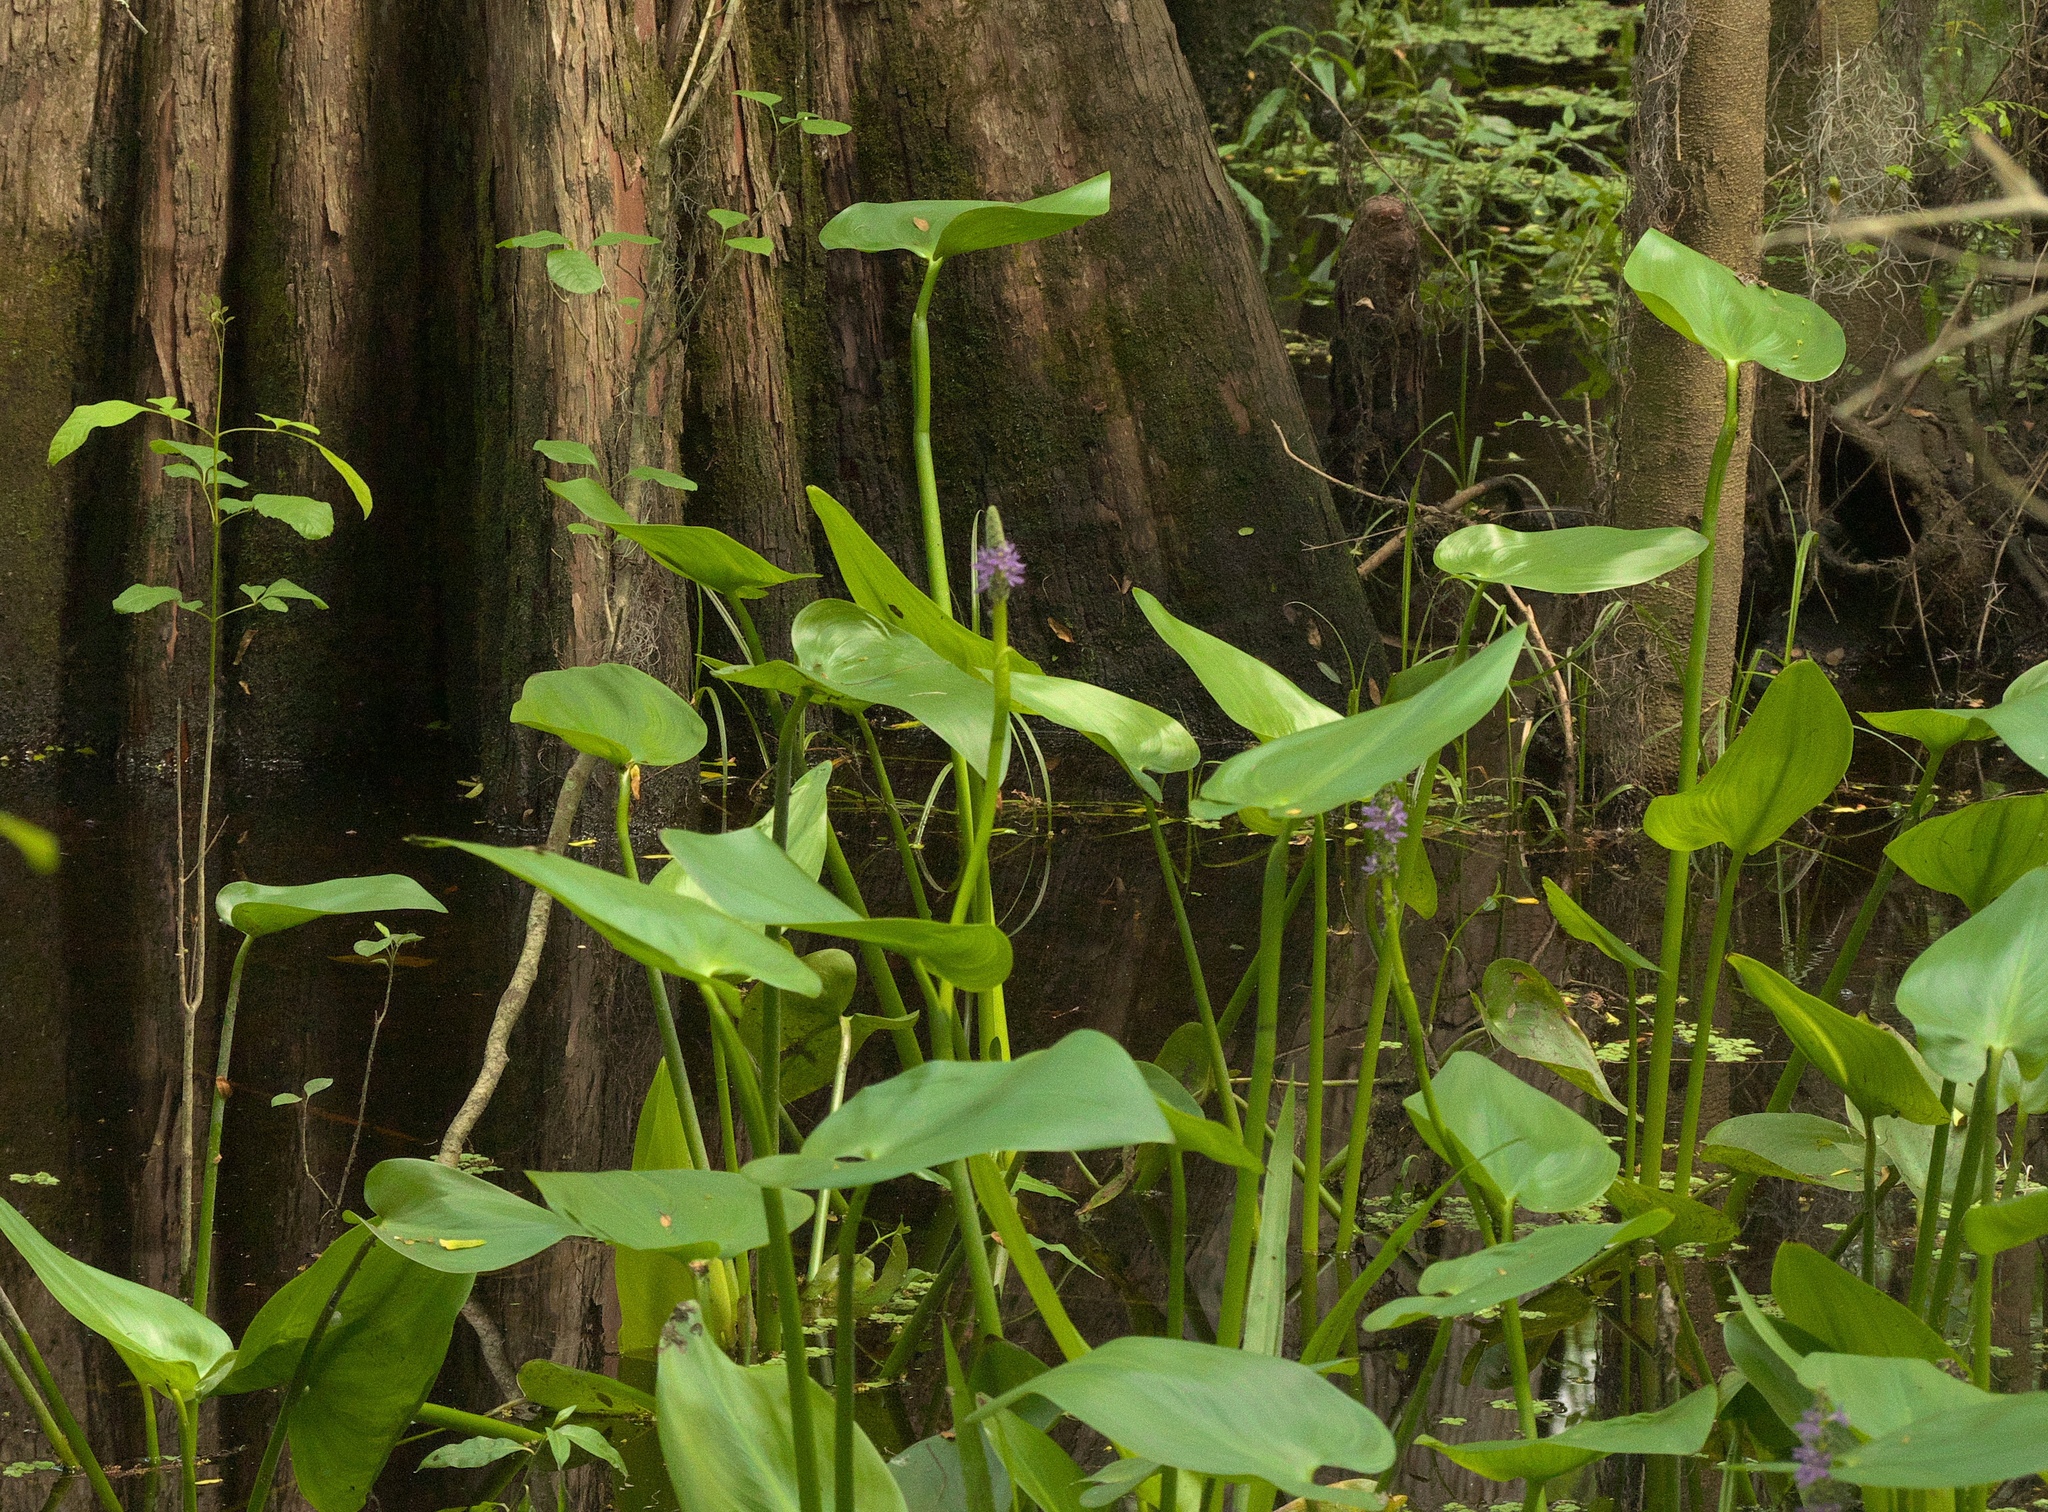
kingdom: Plantae
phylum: Tracheophyta
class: Liliopsida
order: Commelinales
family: Pontederiaceae
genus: Pontederia
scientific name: Pontederia cordata
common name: Pickerelweed
